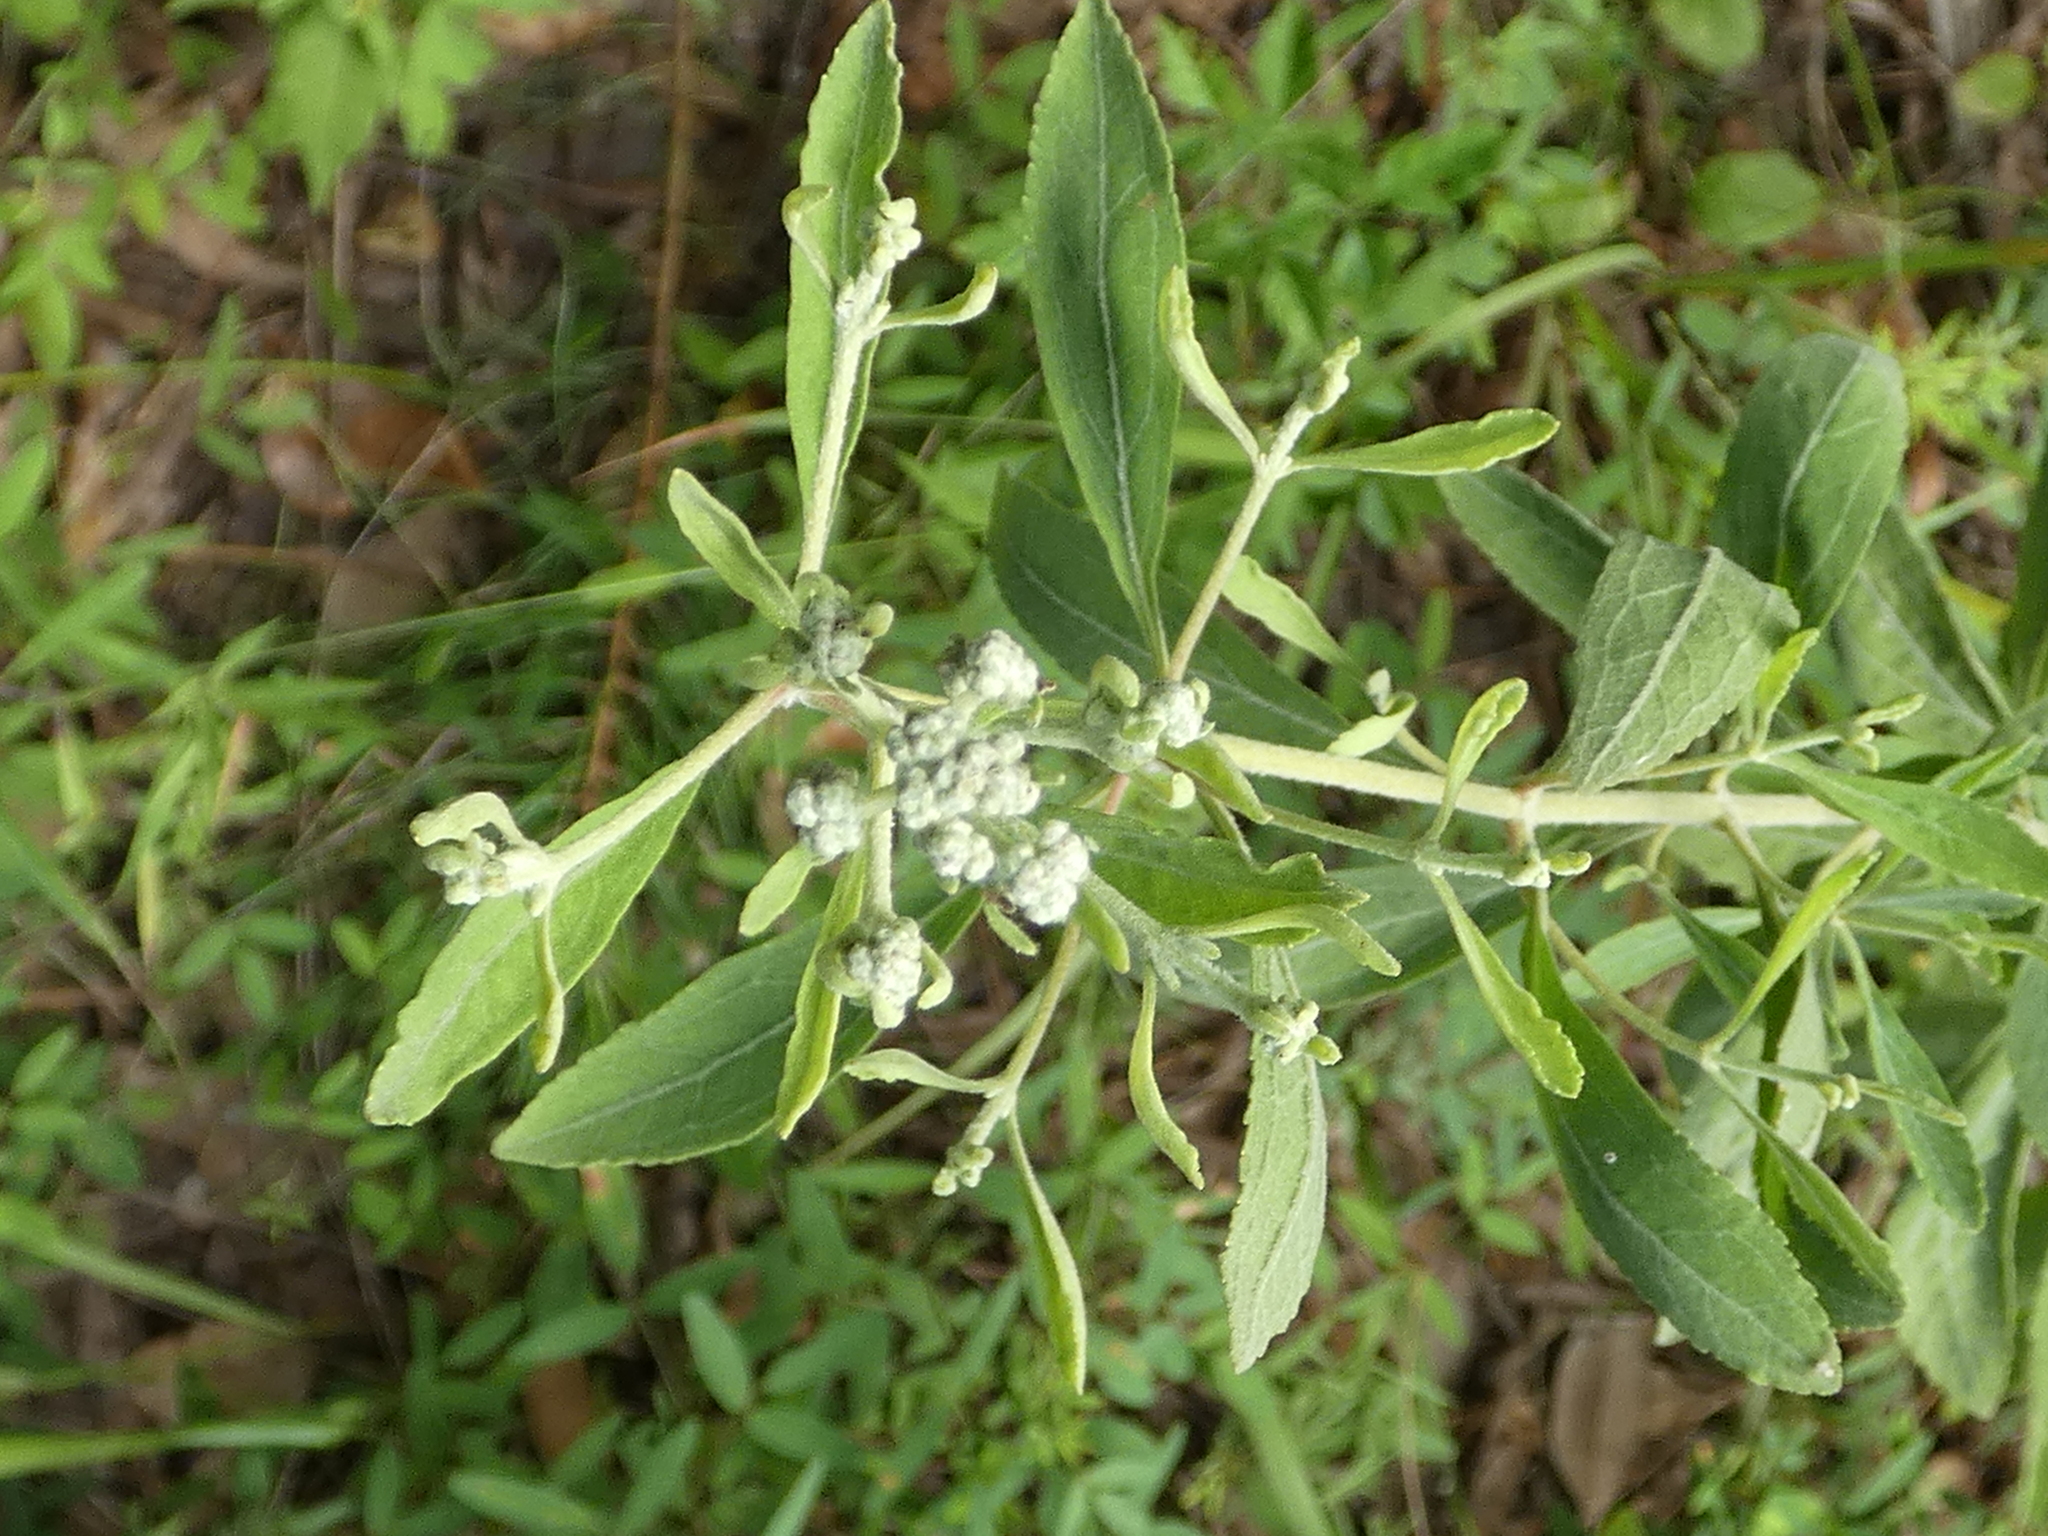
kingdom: Plantae
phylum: Tracheophyta
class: Magnoliopsida
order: Asterales
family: Asteraceae
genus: Eupatorium
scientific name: Eupatorium semiserratum
